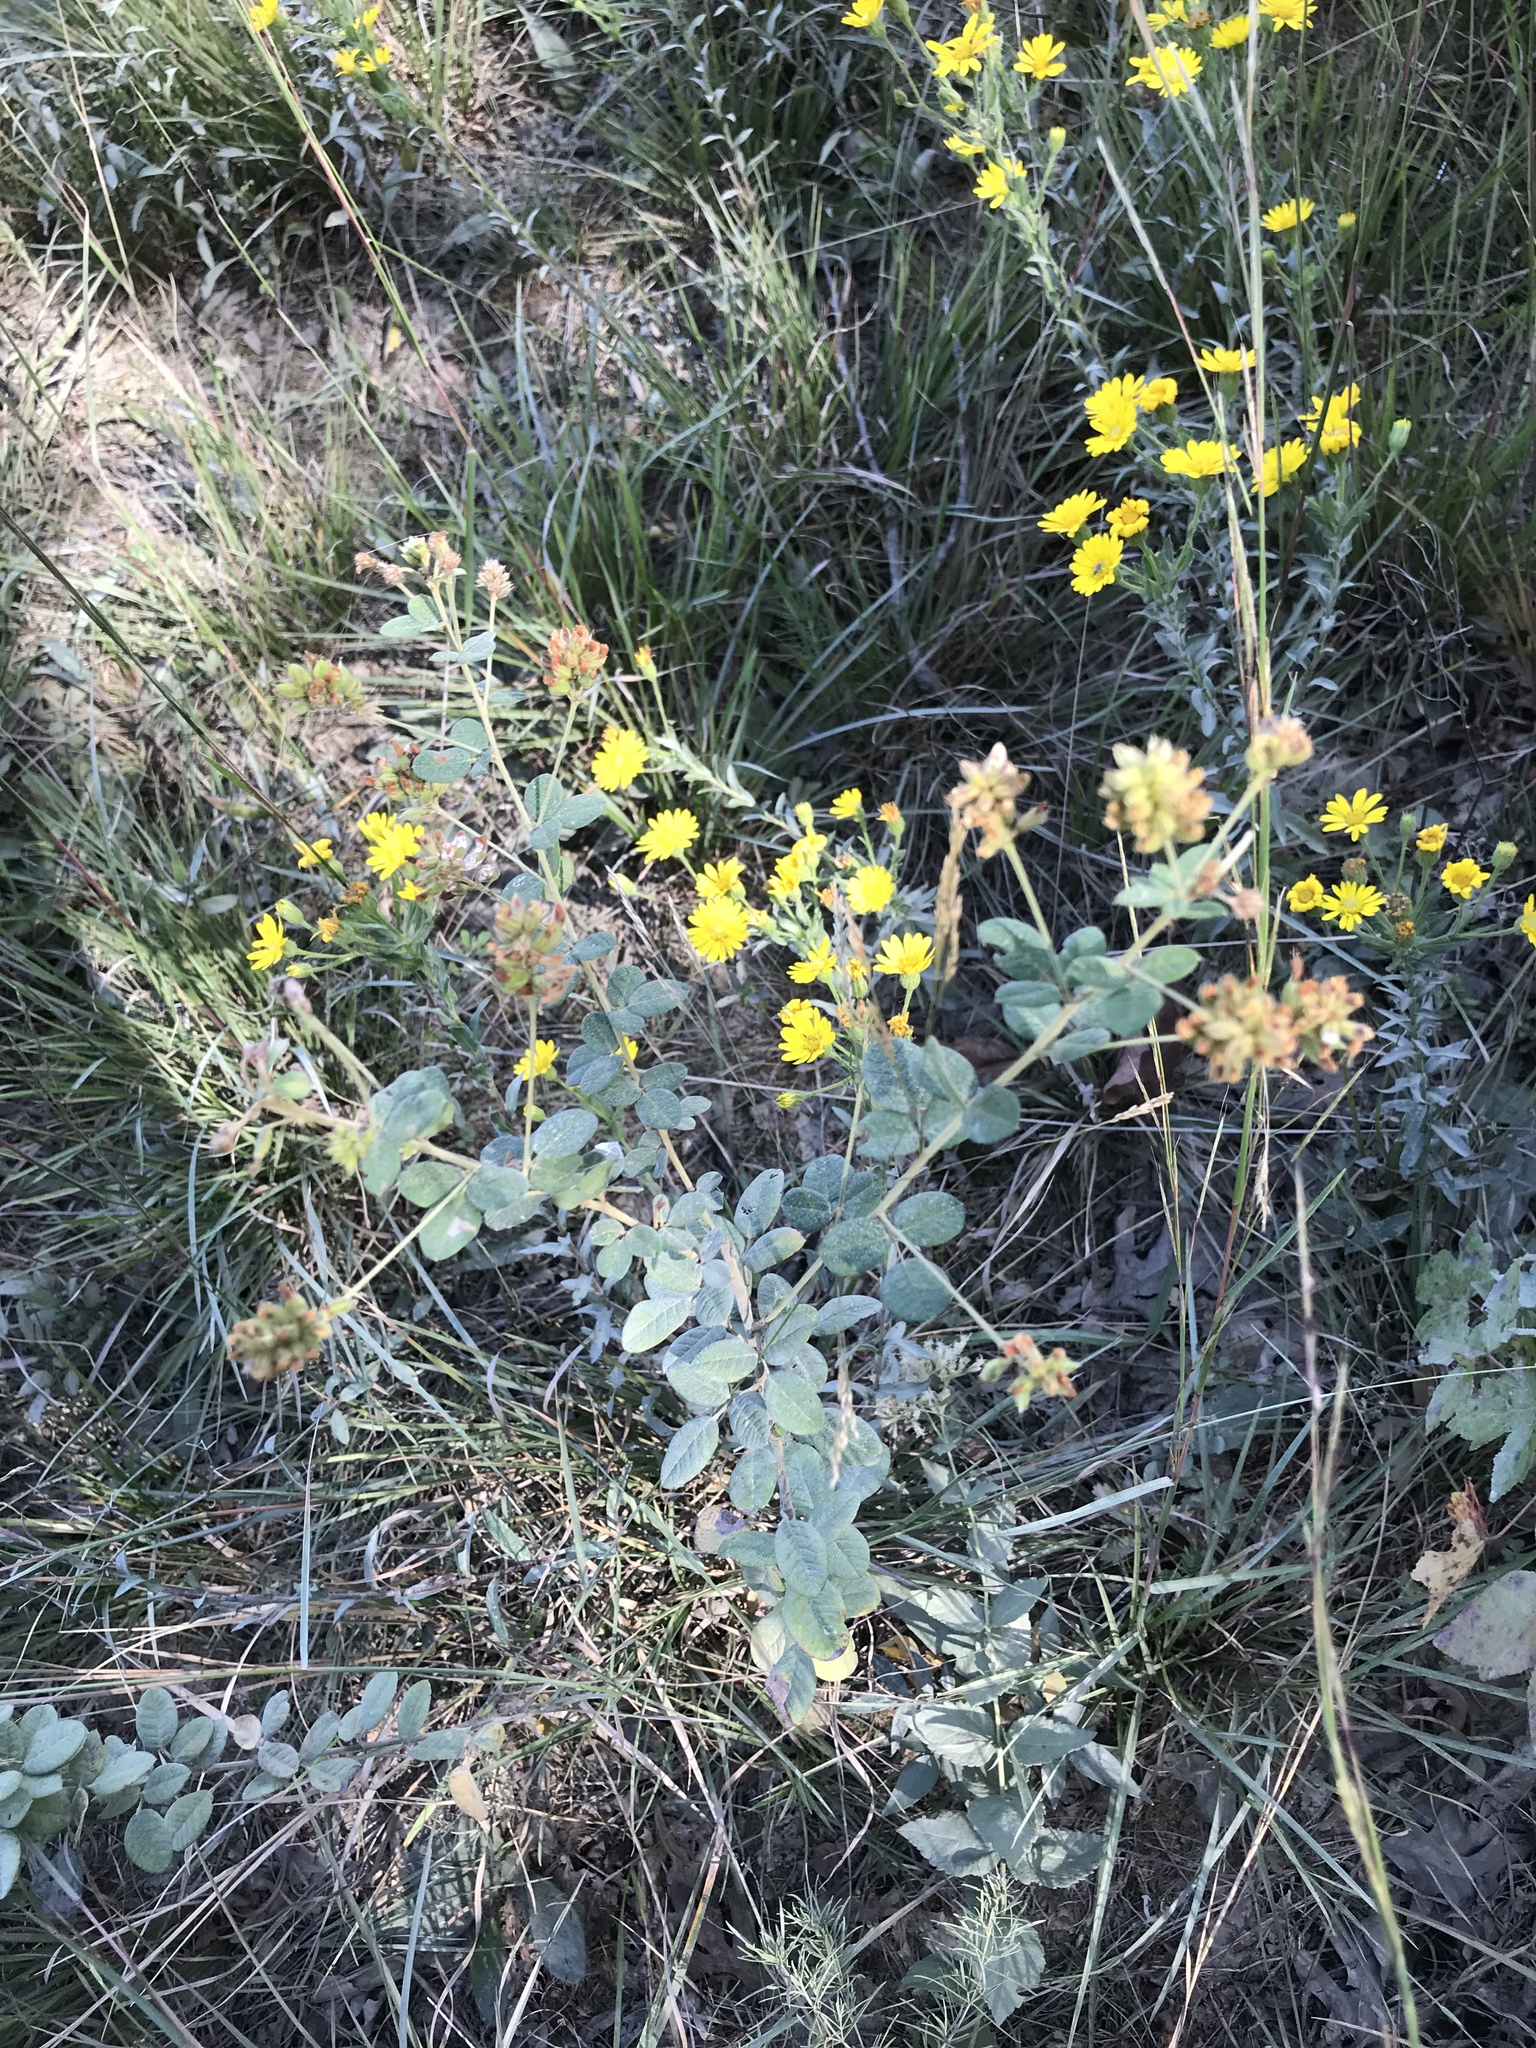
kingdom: Plantae
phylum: Tracheophyta
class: Magnoliopsida
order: Fabales
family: Fabaceae
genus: Lespedeza
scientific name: Lespedeza hirta
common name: Hairy lespedeza
